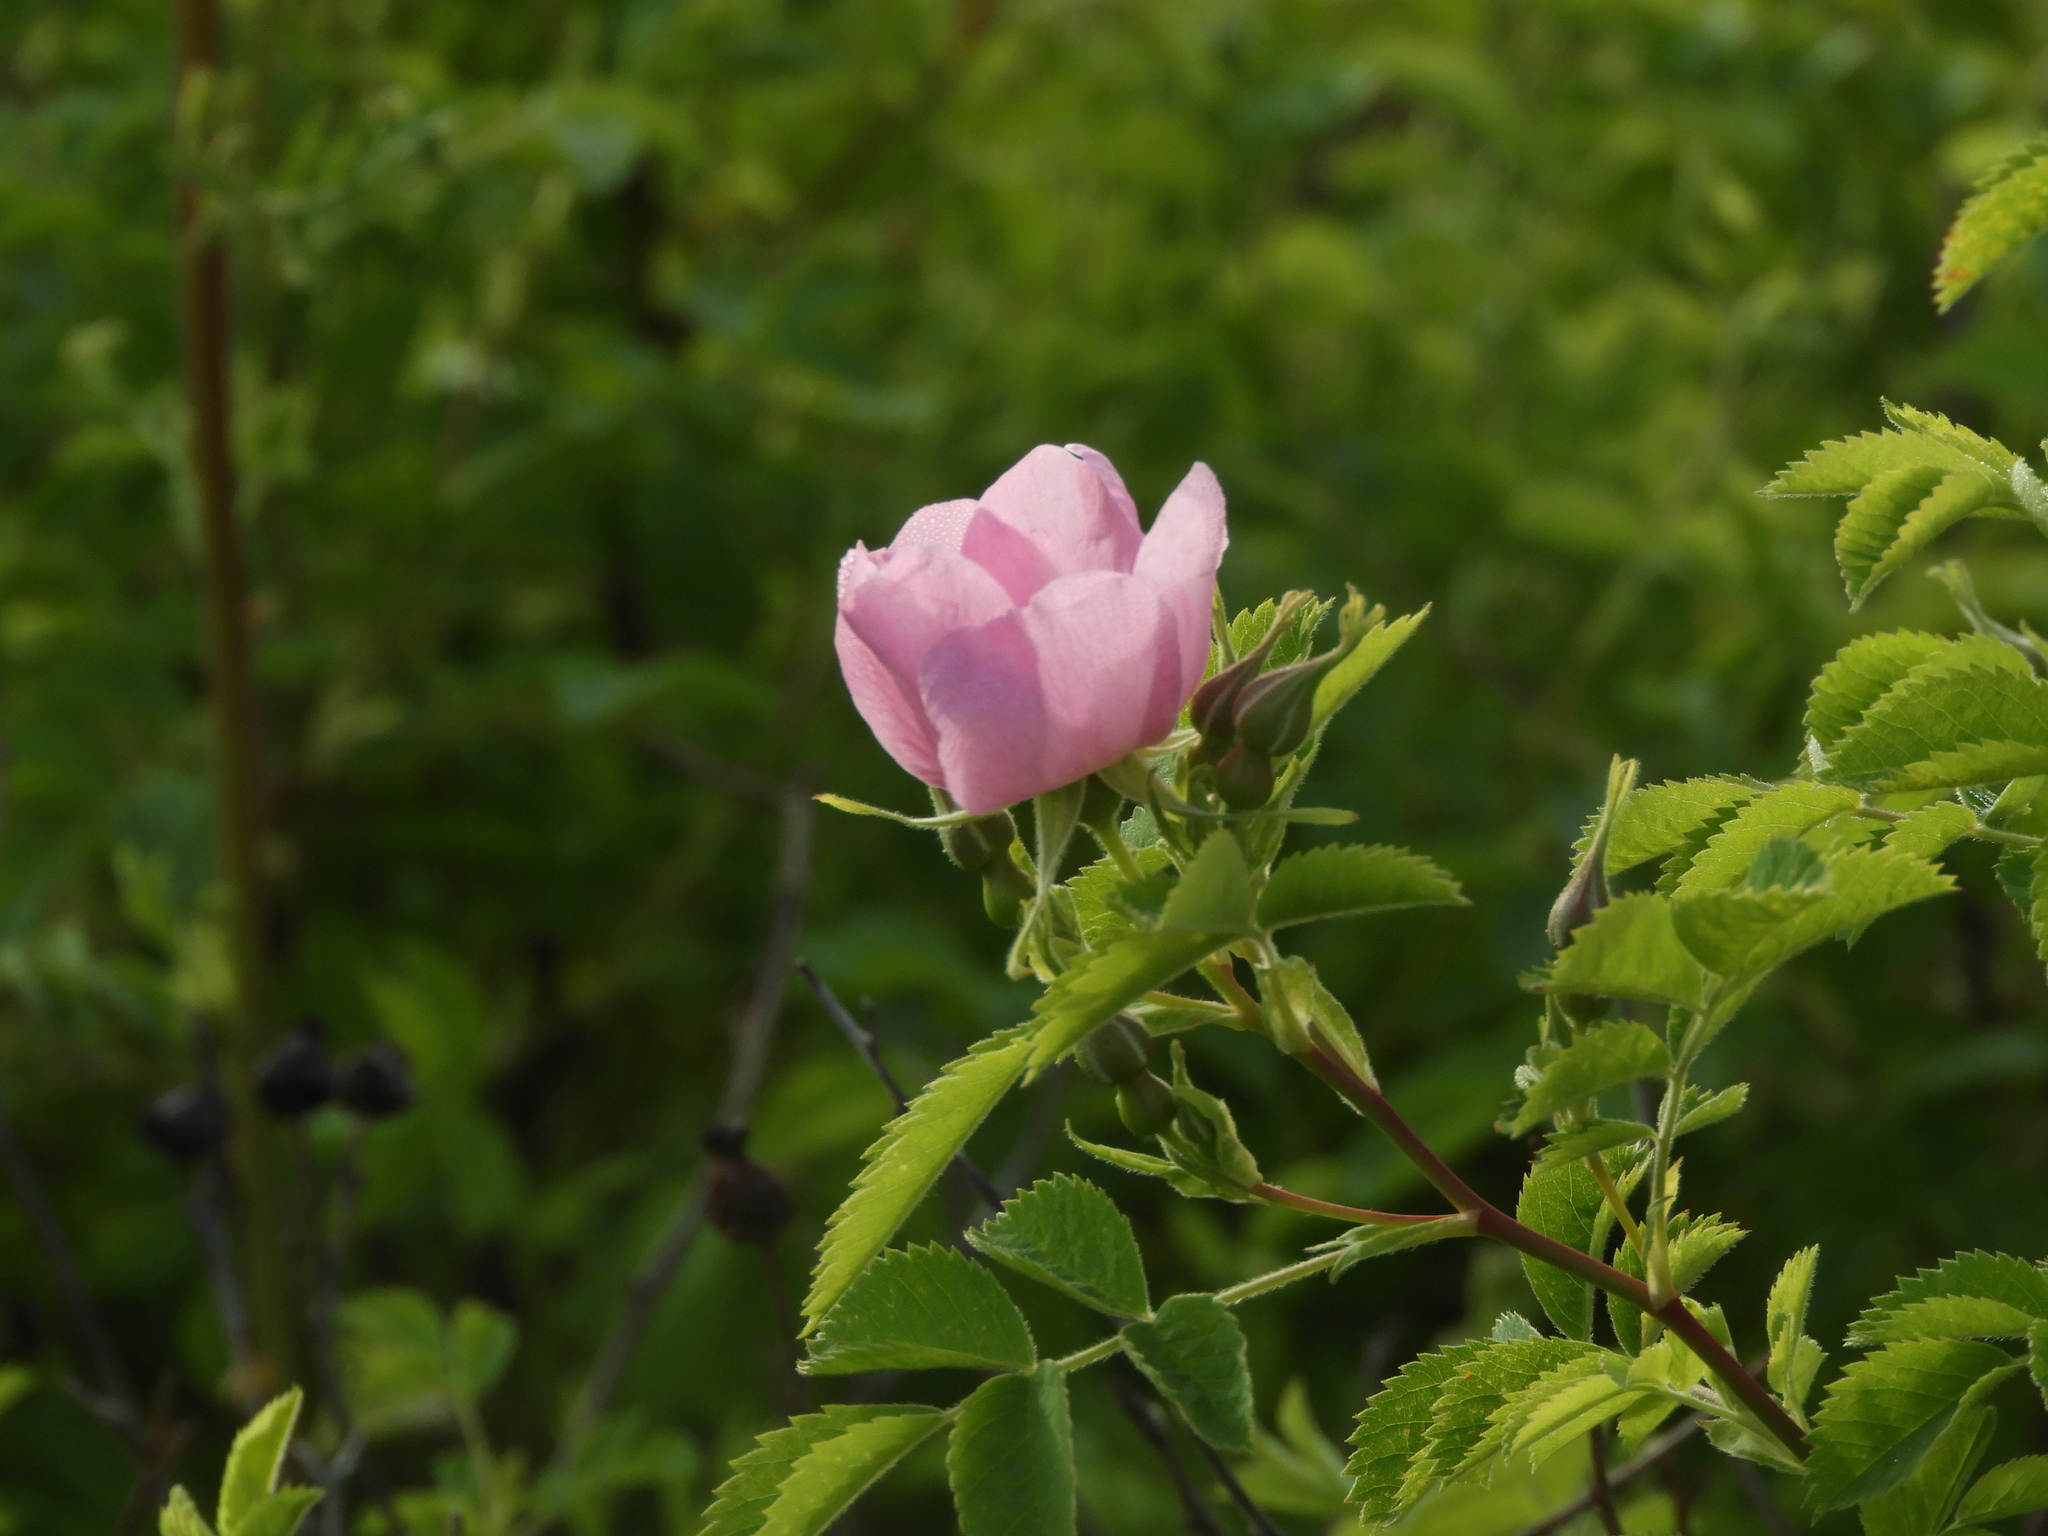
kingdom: Plantae
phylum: Tracheophyta
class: Magnoliopsida
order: Rosales
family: Rosaceae
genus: Rosa
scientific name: Rosa californica
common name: California rose
